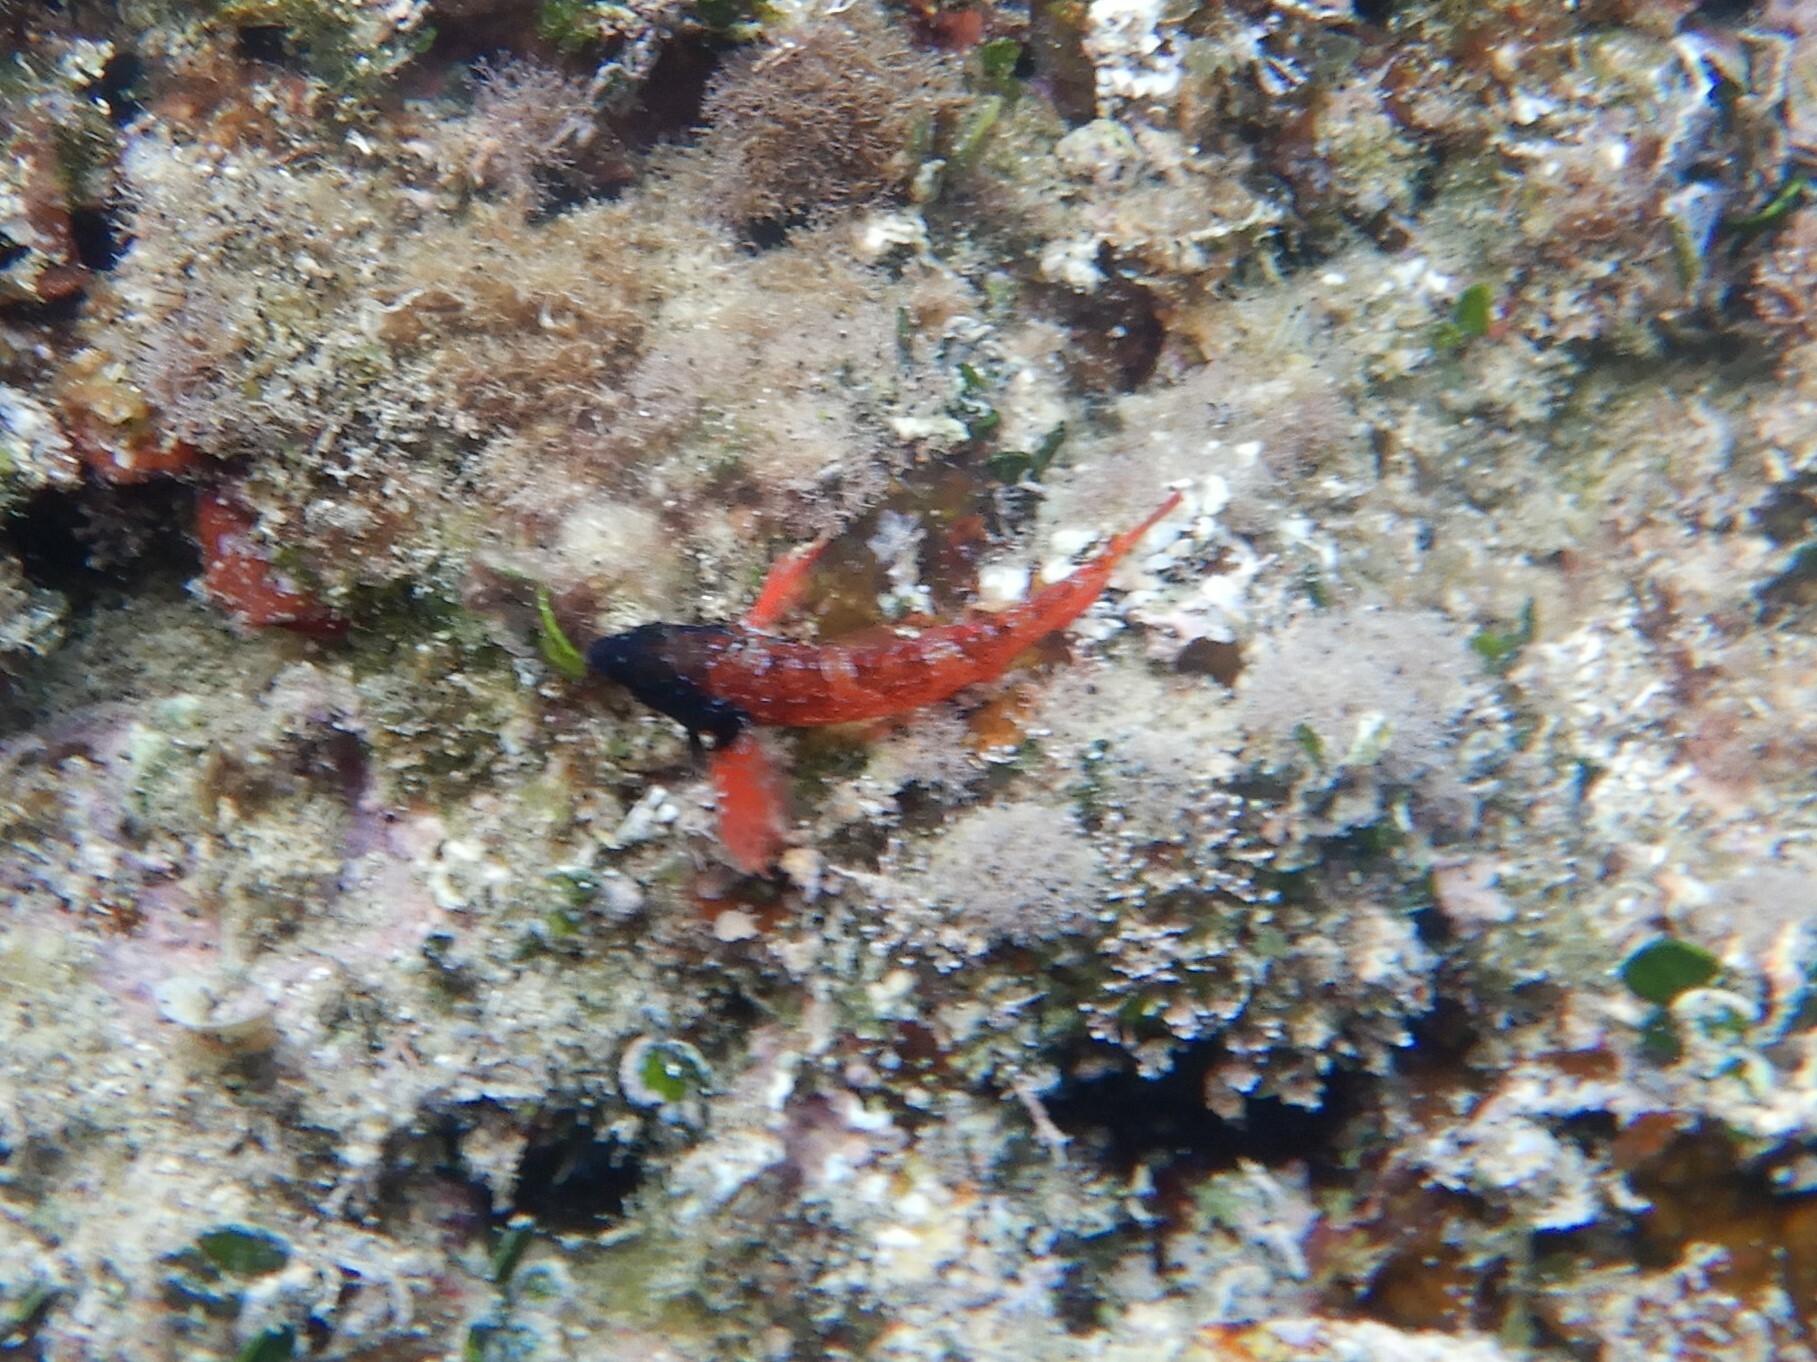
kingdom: Animalia
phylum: Chordata
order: Perciformes
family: Tripterygiidae
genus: Tripterygion
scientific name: Tripterygion tripteronotum
